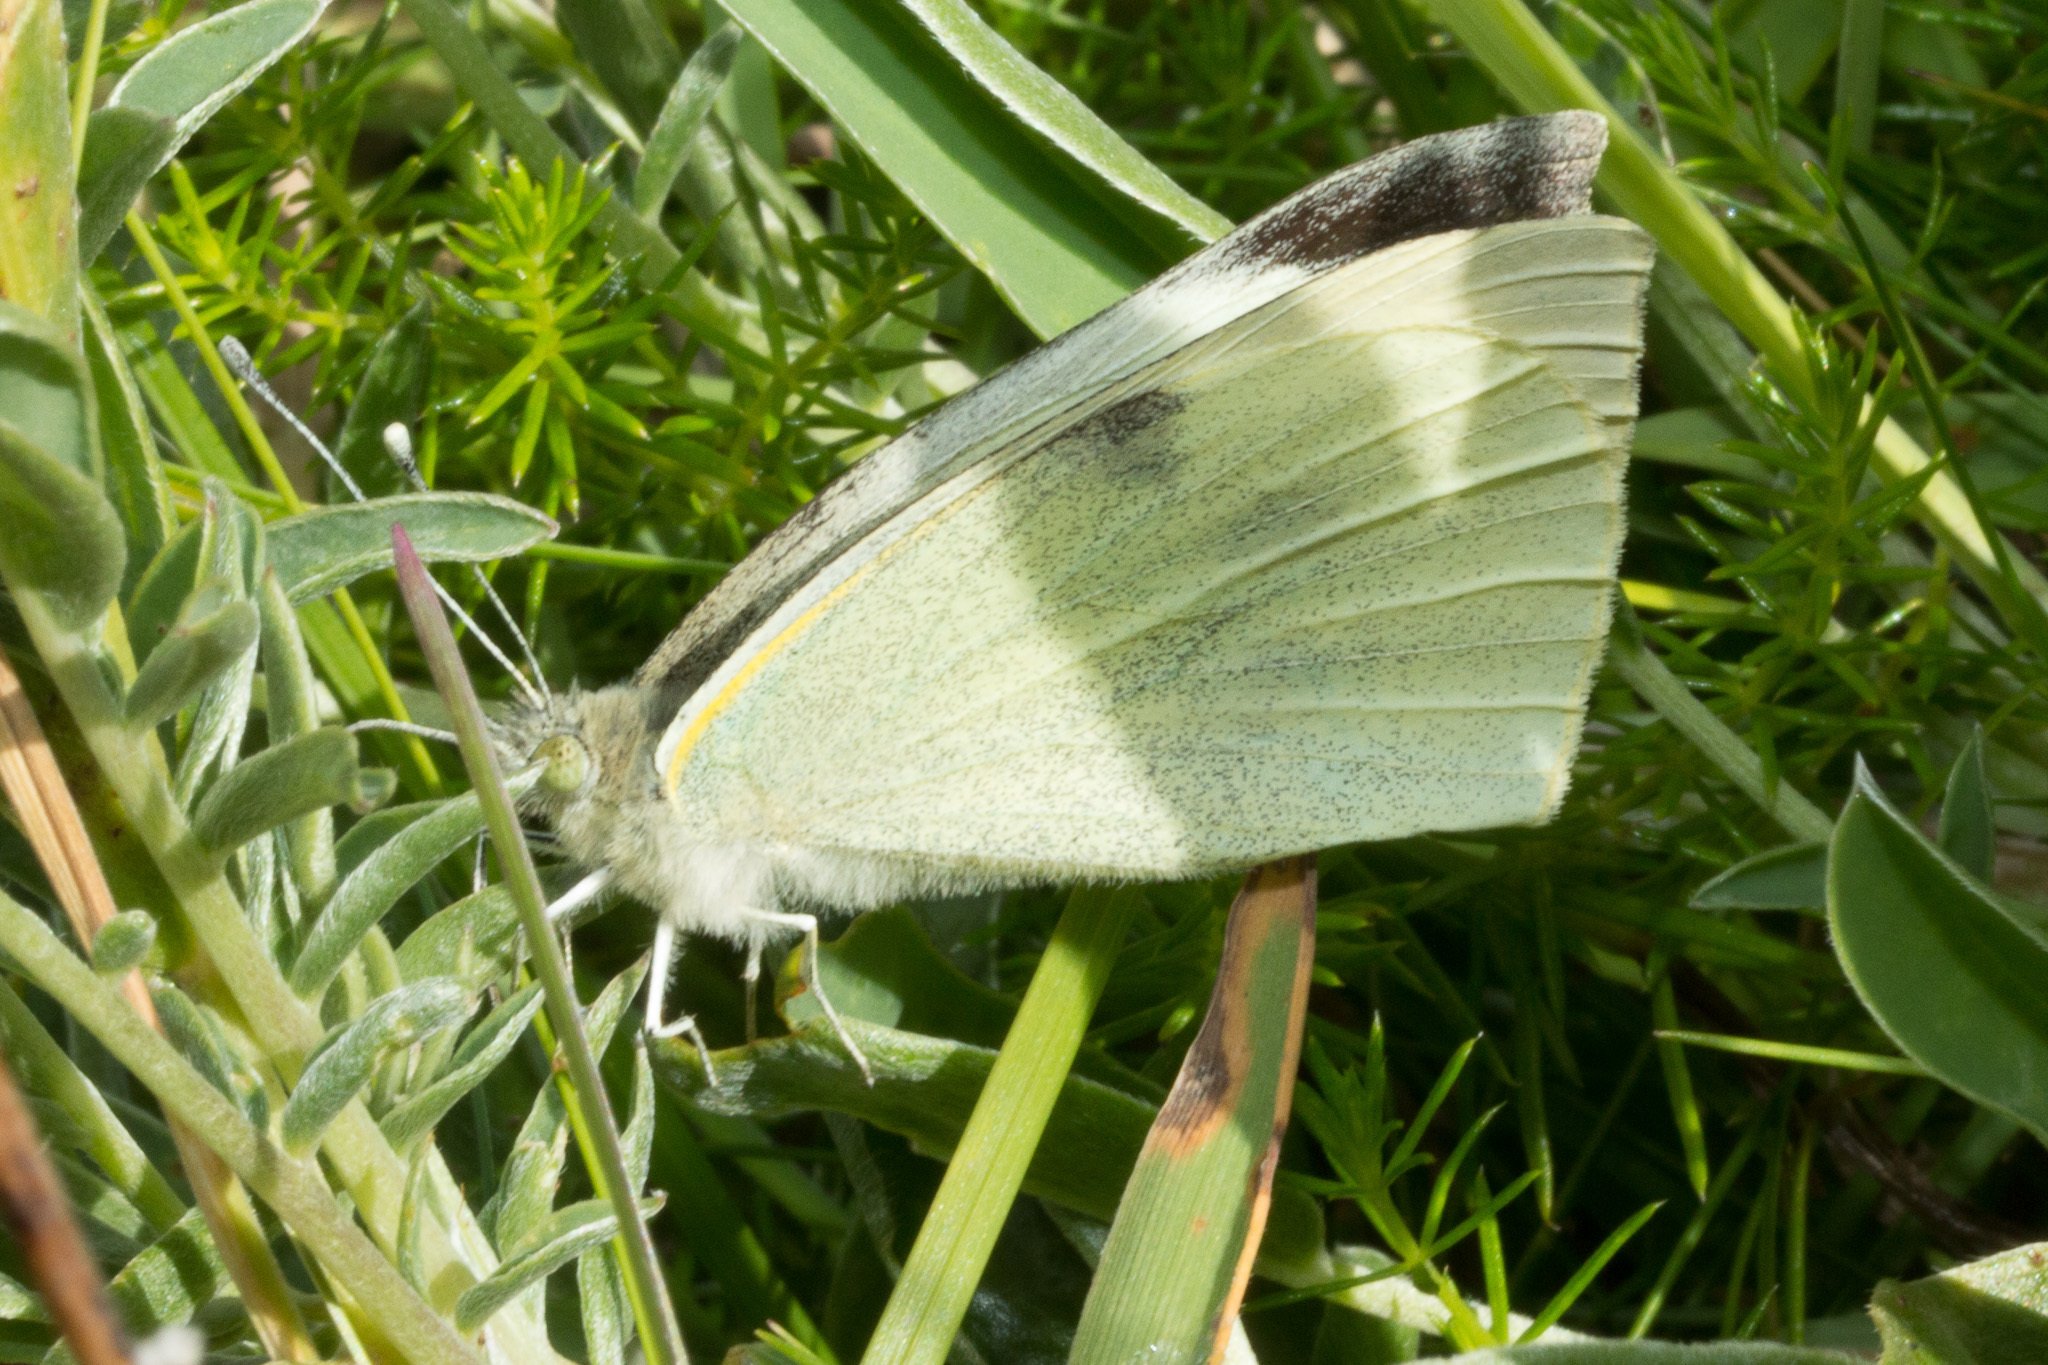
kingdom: Animalia
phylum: Arthropoda
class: Insecta
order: Lepidoptera
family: Pieridae
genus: Pieris
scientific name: Pieris brassicae
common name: Large white
